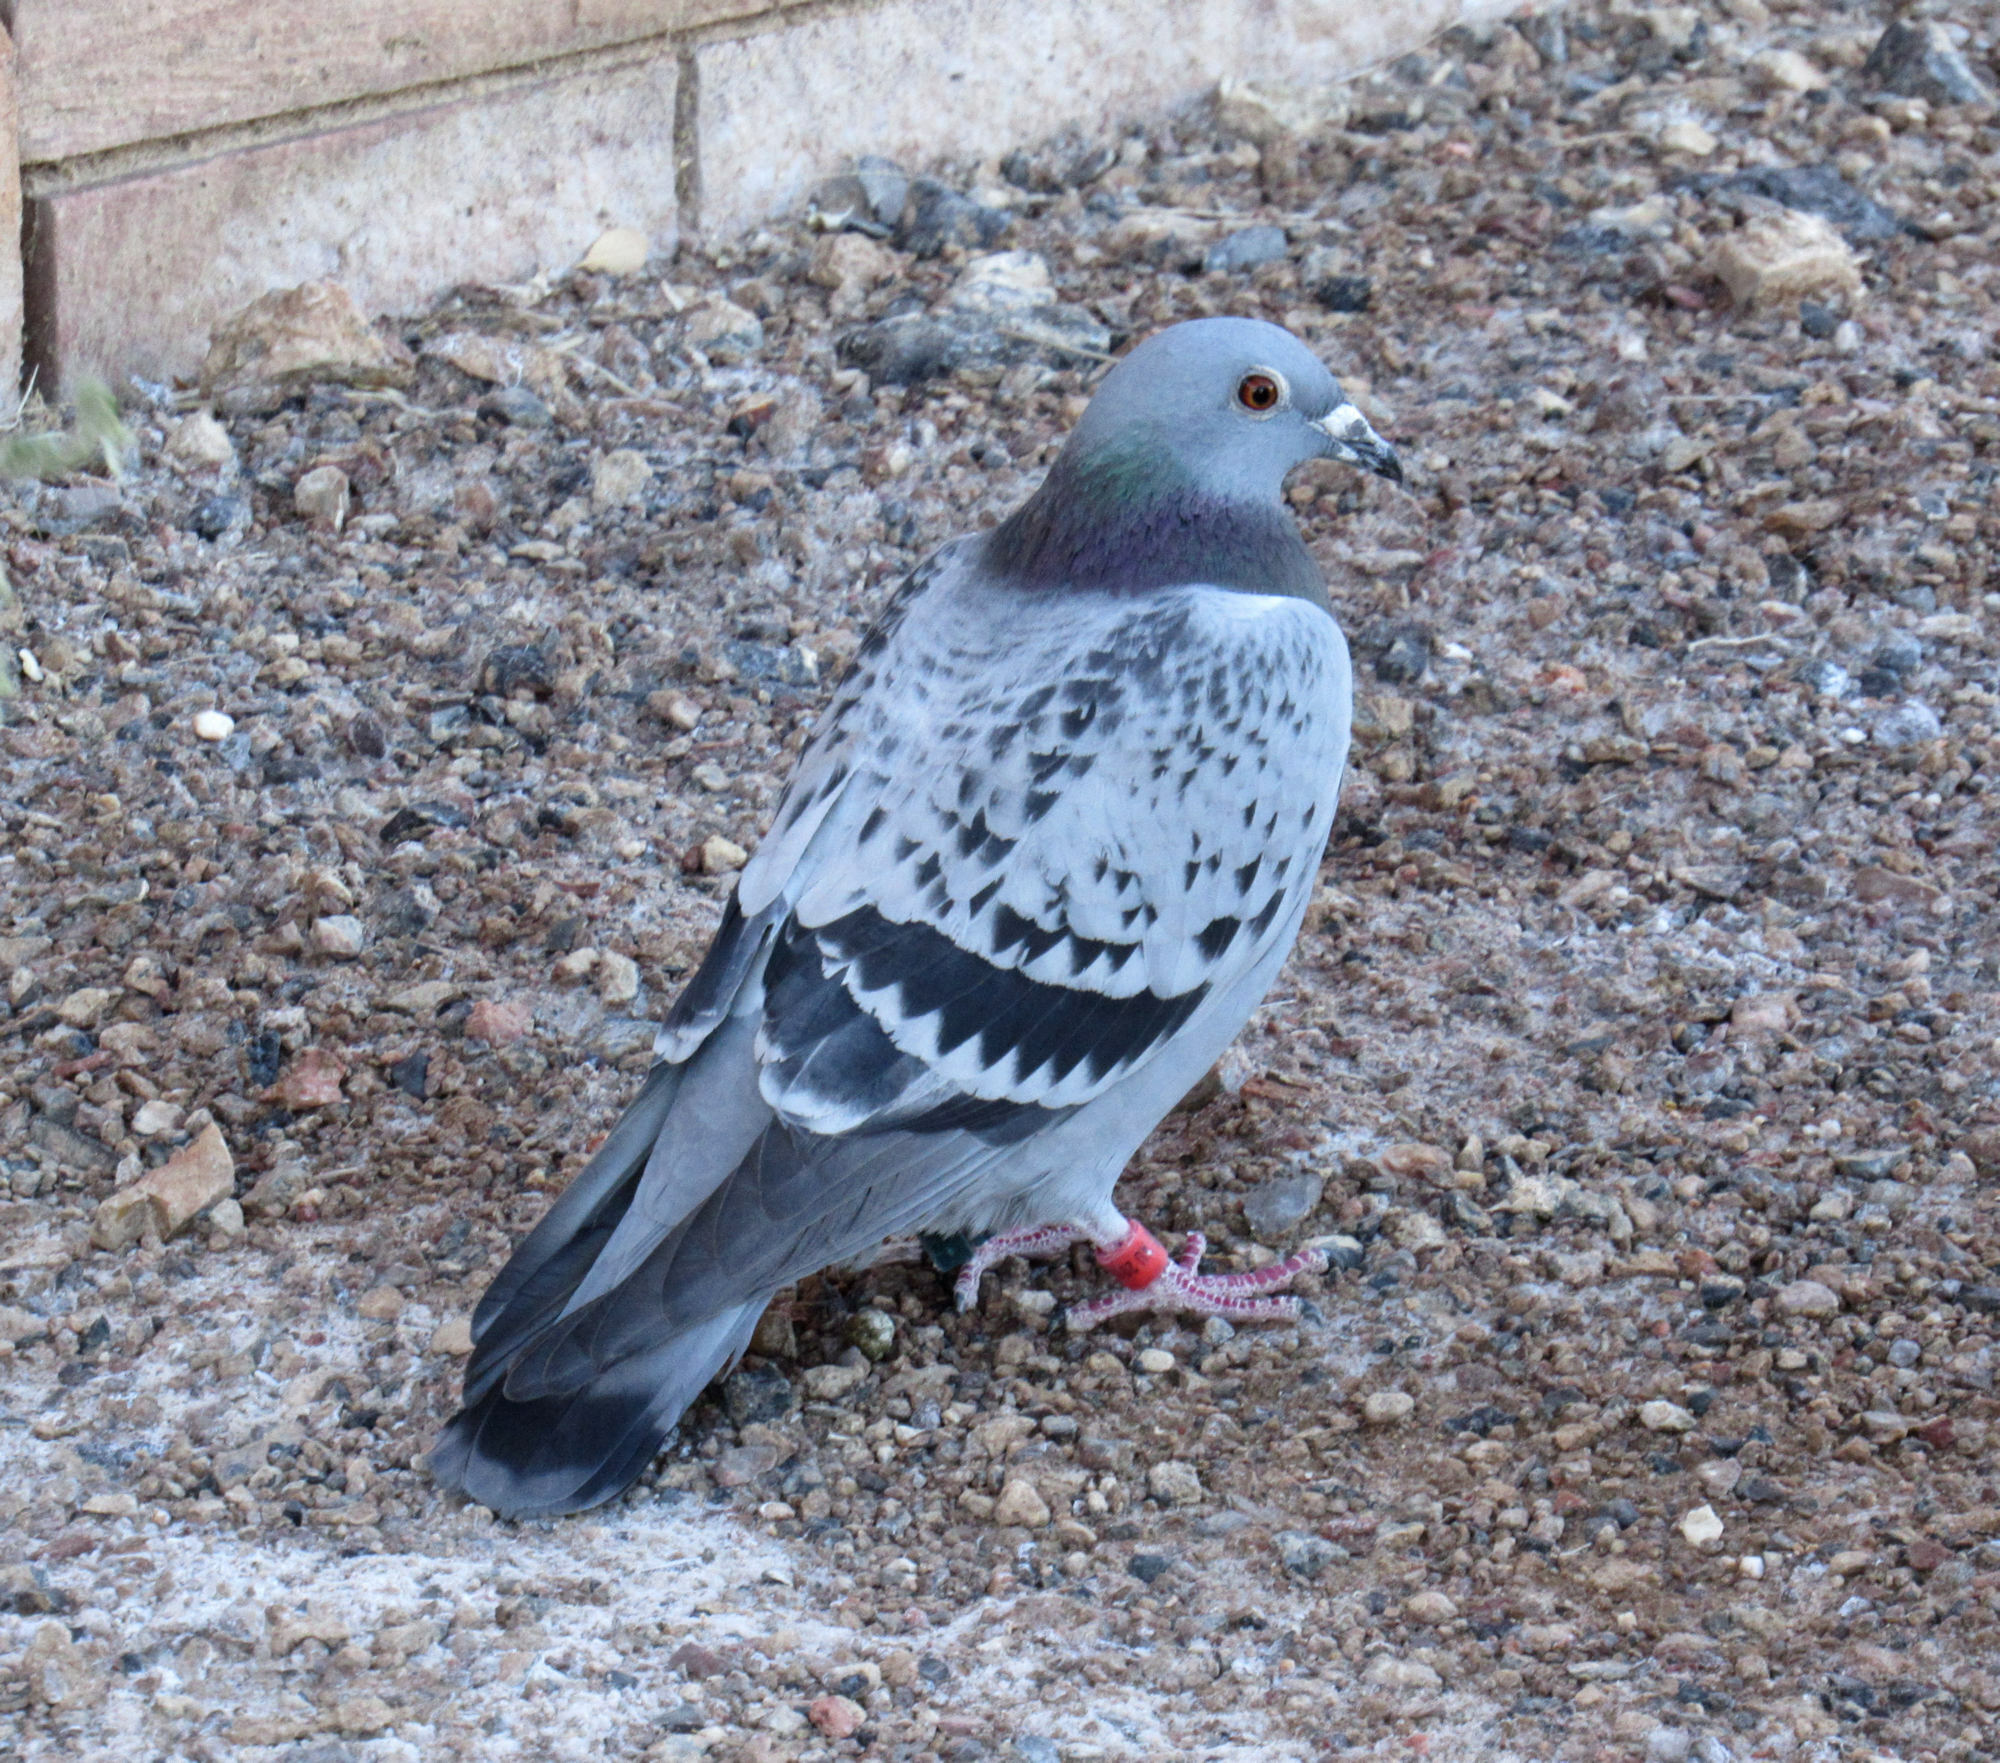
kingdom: Animalia
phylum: Chordata
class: Aves
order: Columbiformes
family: Columbidae
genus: Columba
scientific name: Columba livia
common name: Rock pigeon
